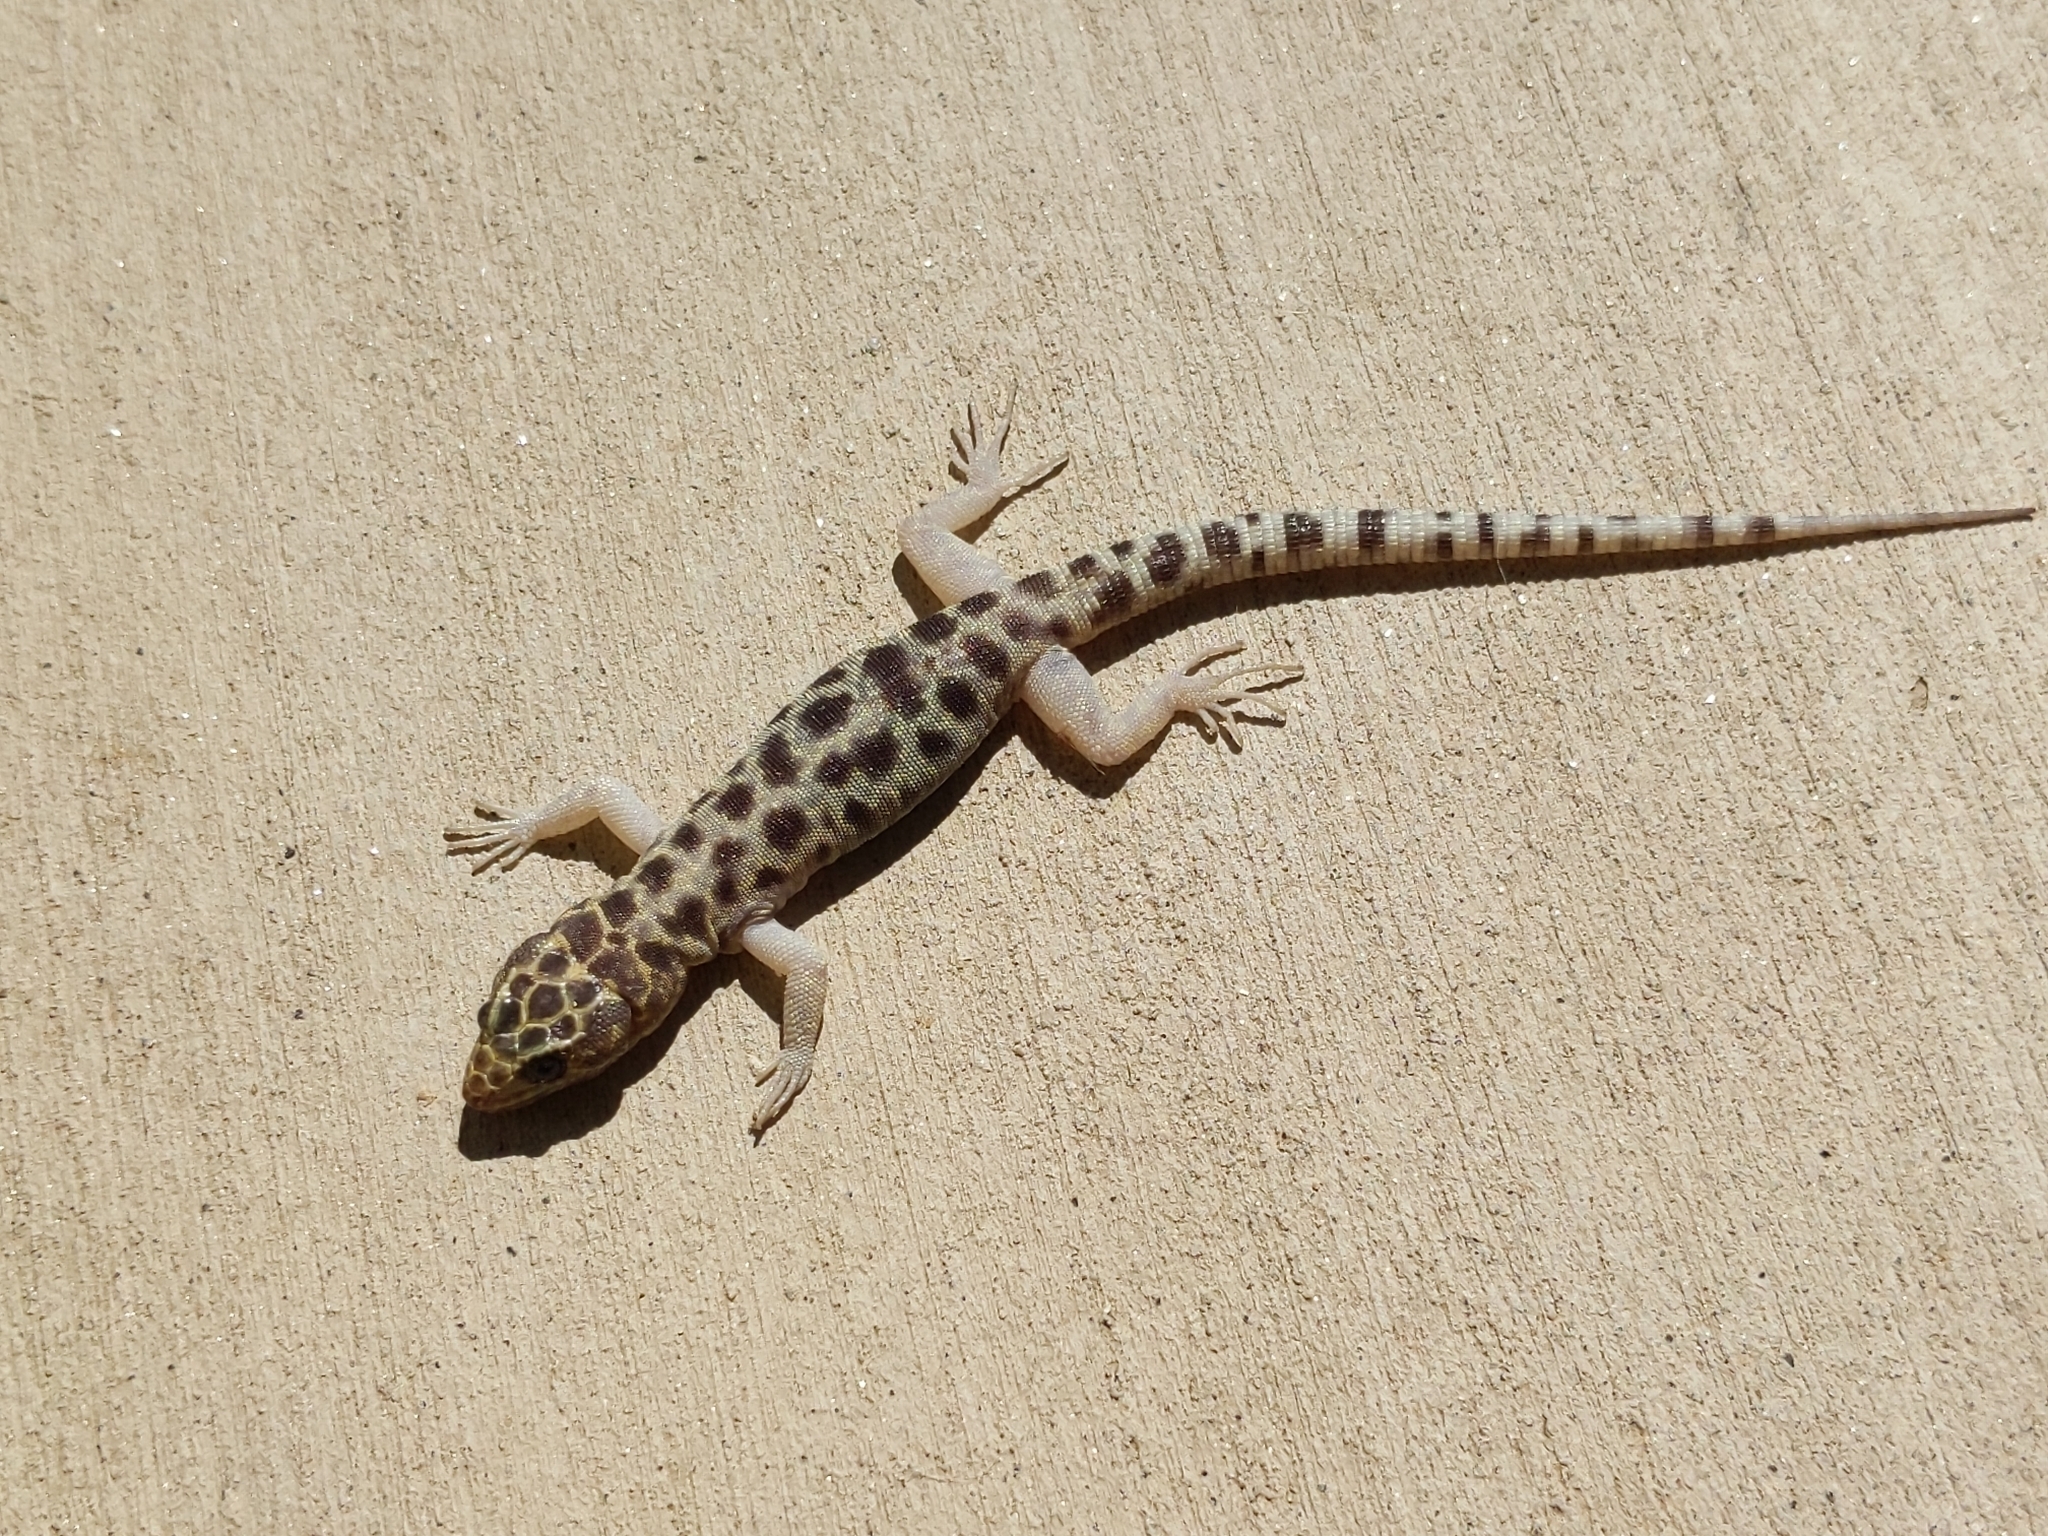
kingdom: Animalia
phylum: Chordata
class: Squamata
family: Xantusiidae
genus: Xantusia
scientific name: Xantusia henshawi
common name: Granite night lizard
